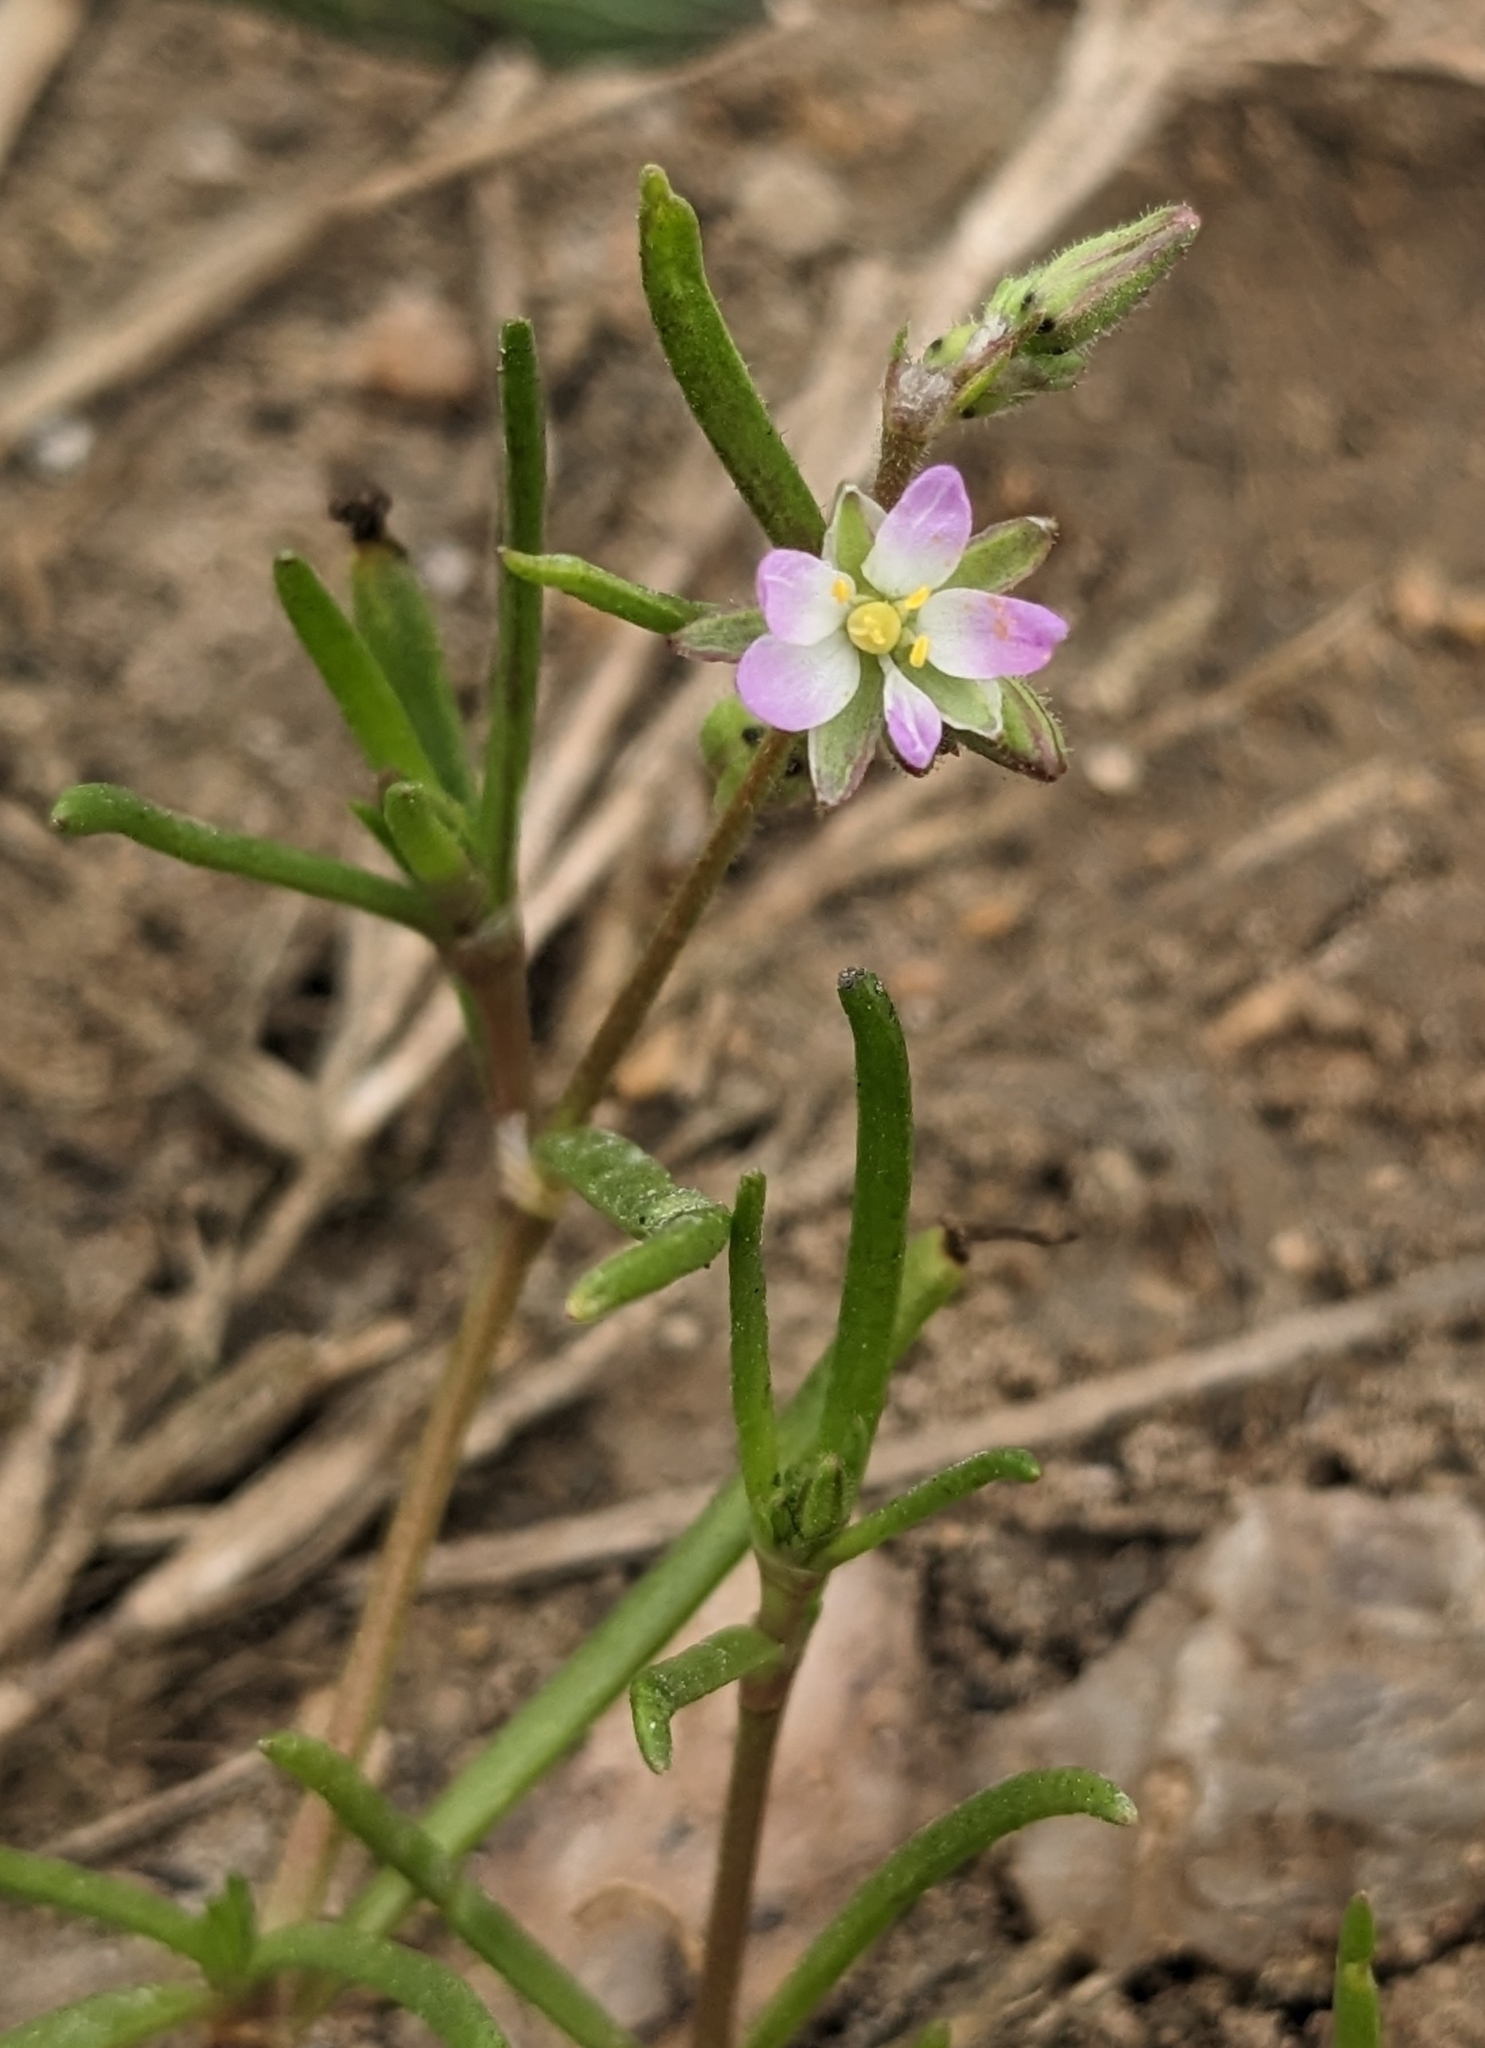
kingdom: Plantae
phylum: Tracheophyta
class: Magnoliopsida
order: Caryophyllales
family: Caryophyllaceae
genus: Spergularia
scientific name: Spergularia marina
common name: Lesser sea-spurrey
